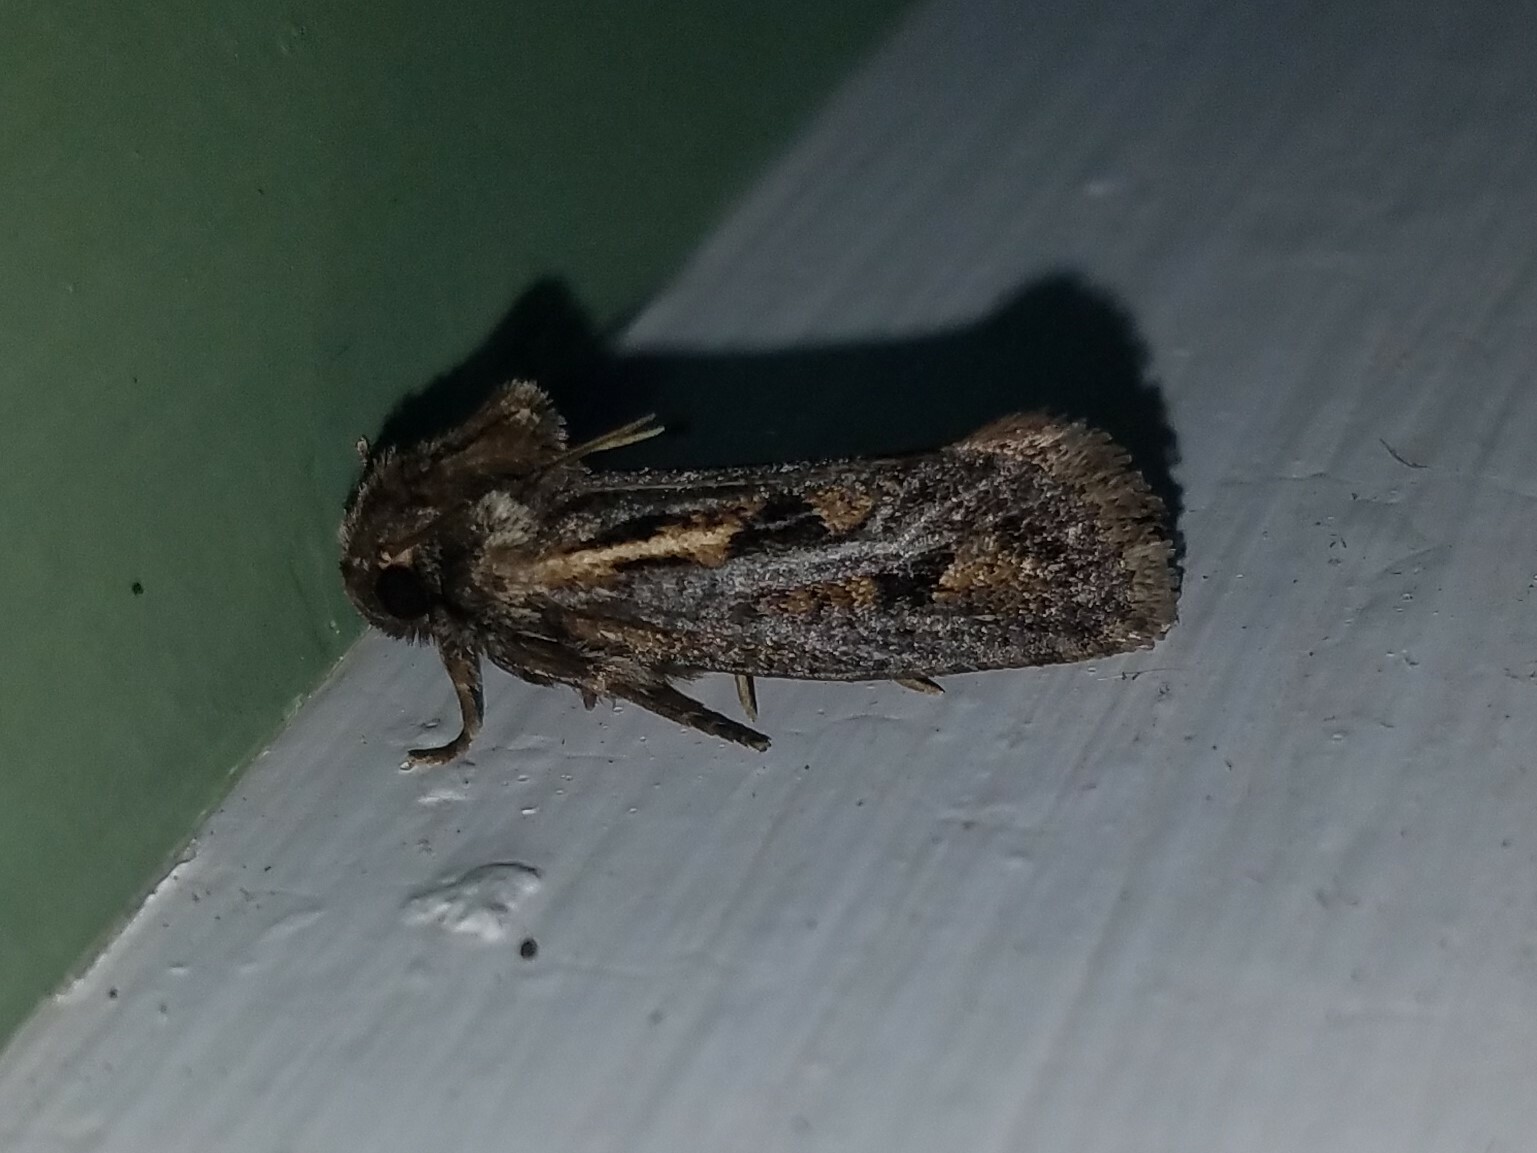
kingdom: Animalia
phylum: Arthropoda
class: Insecta
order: Lepidoptera
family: Tineidae
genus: Acrolophus
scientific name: Acrolophus popeanella
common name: Clemens' grass tubeworm moth
